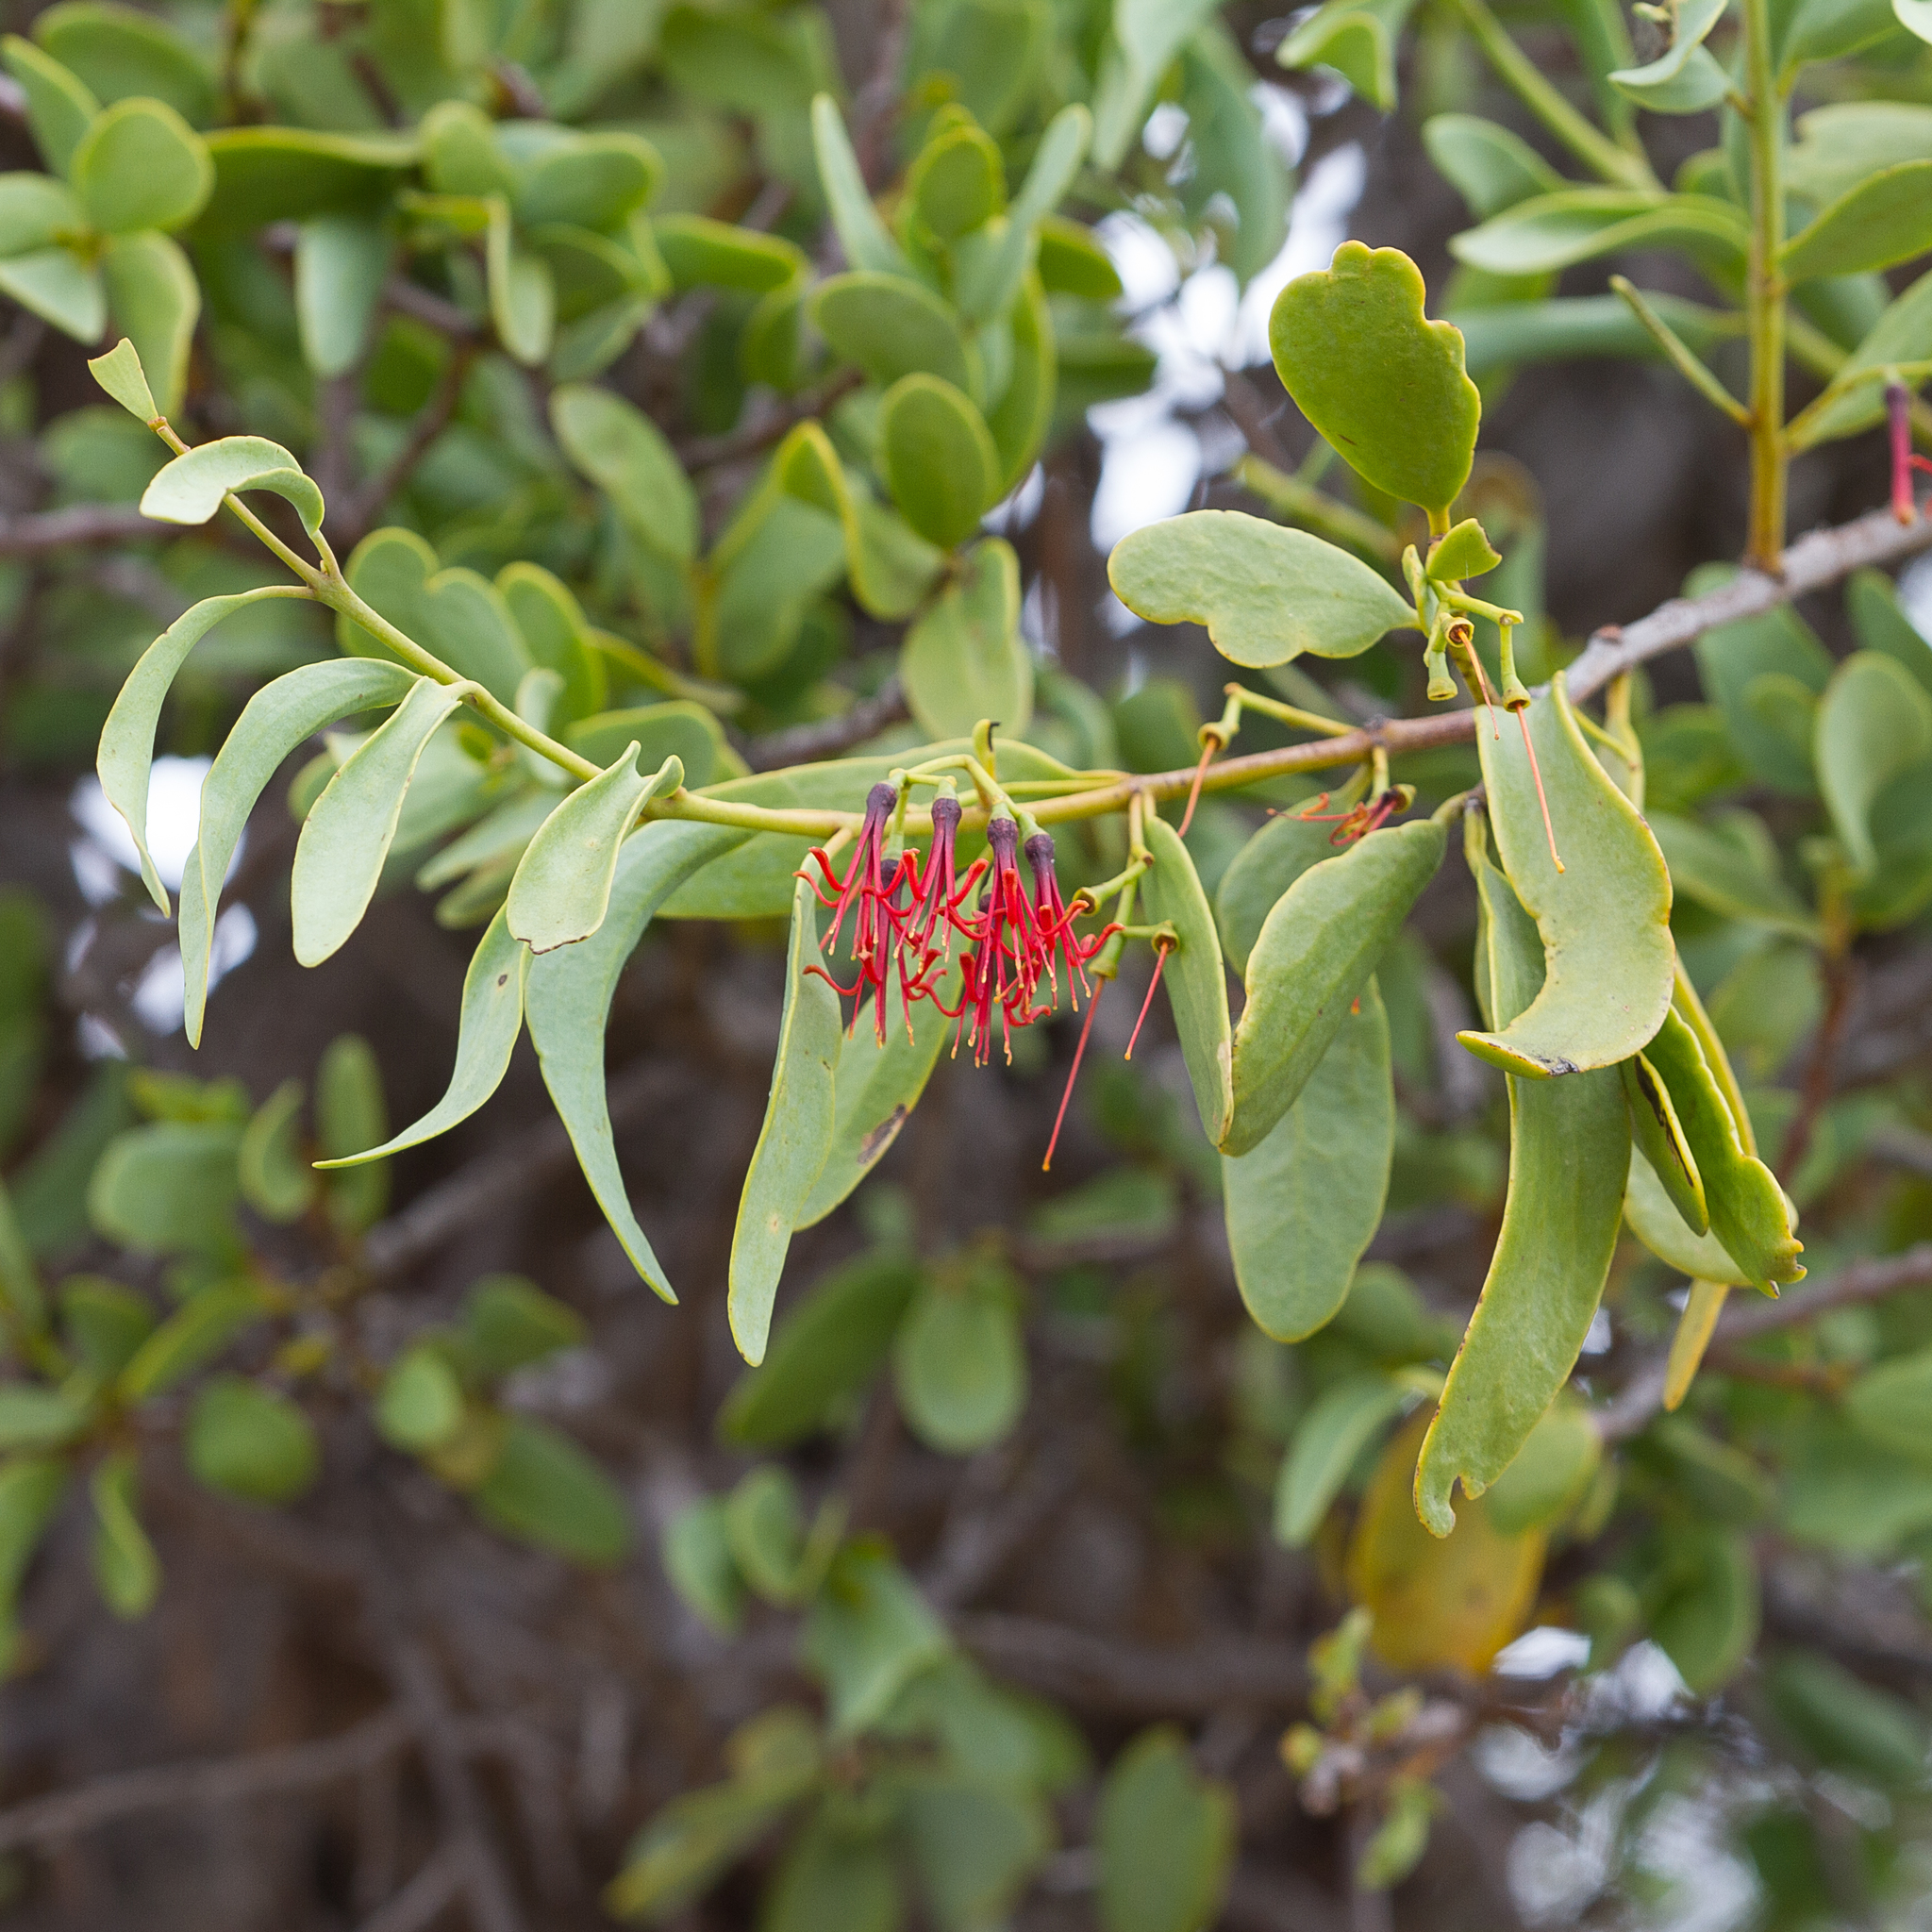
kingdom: Plantae
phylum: Tracheophyta
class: Magnoliopsida
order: Santalales
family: Loranthaceae
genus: Amyema
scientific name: Amyema miraculosa
